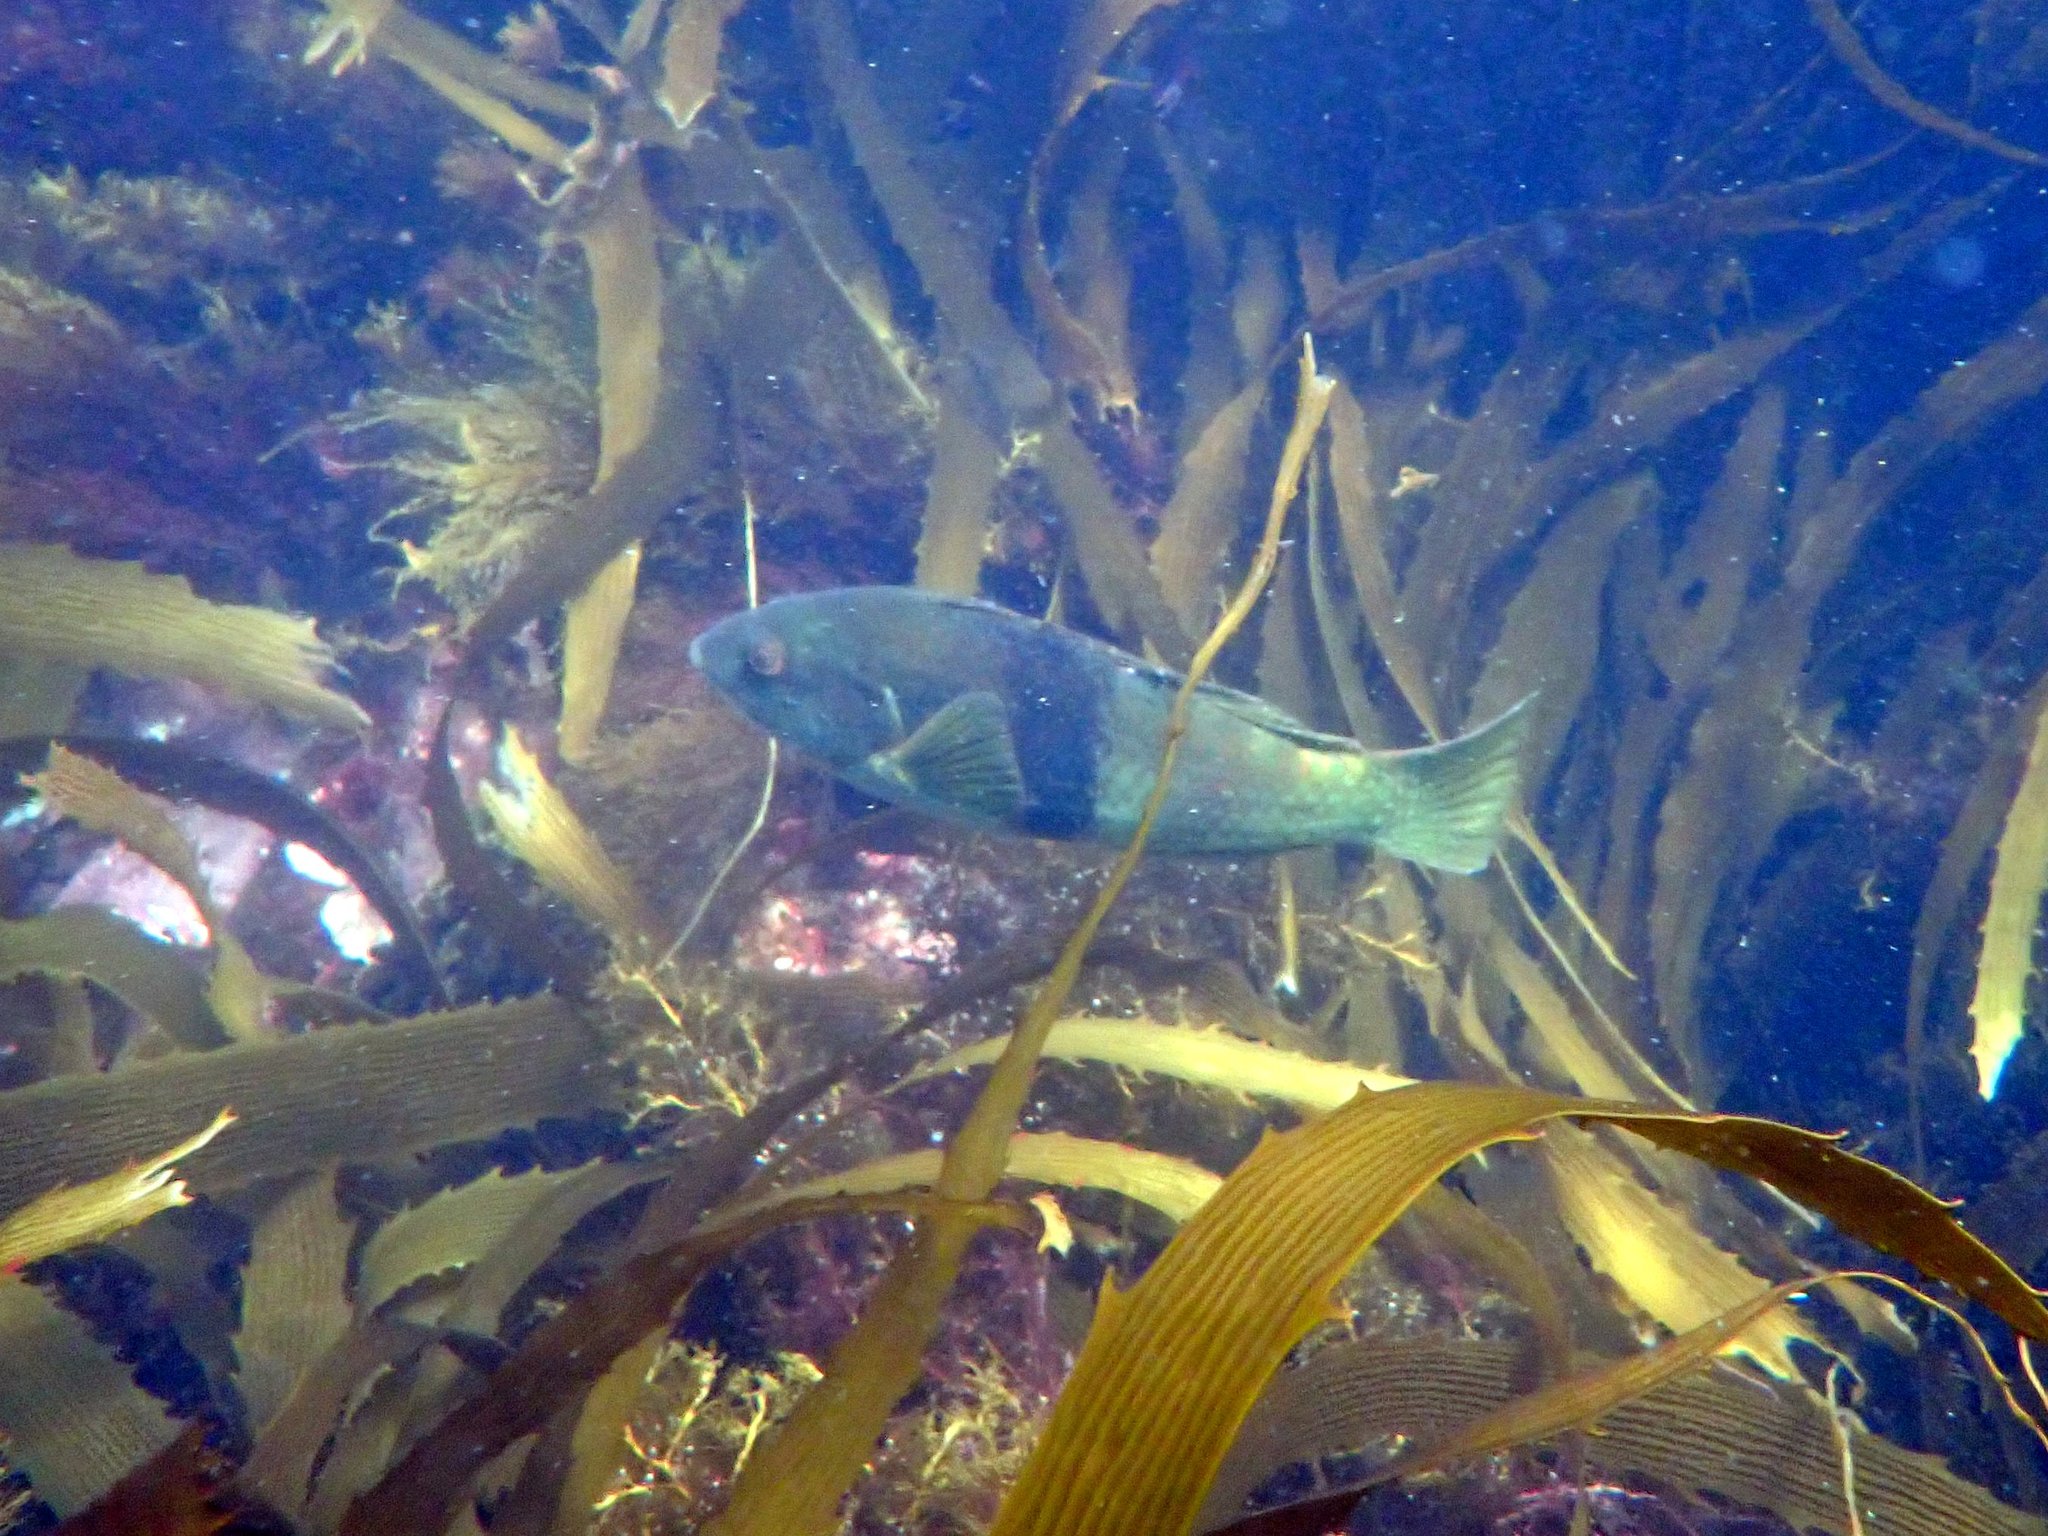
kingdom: Animalia
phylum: Chordata
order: Perciformes
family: Labridae
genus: Notolabrus
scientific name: Notolabrus tetricus
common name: Blue-throated parrotfish
